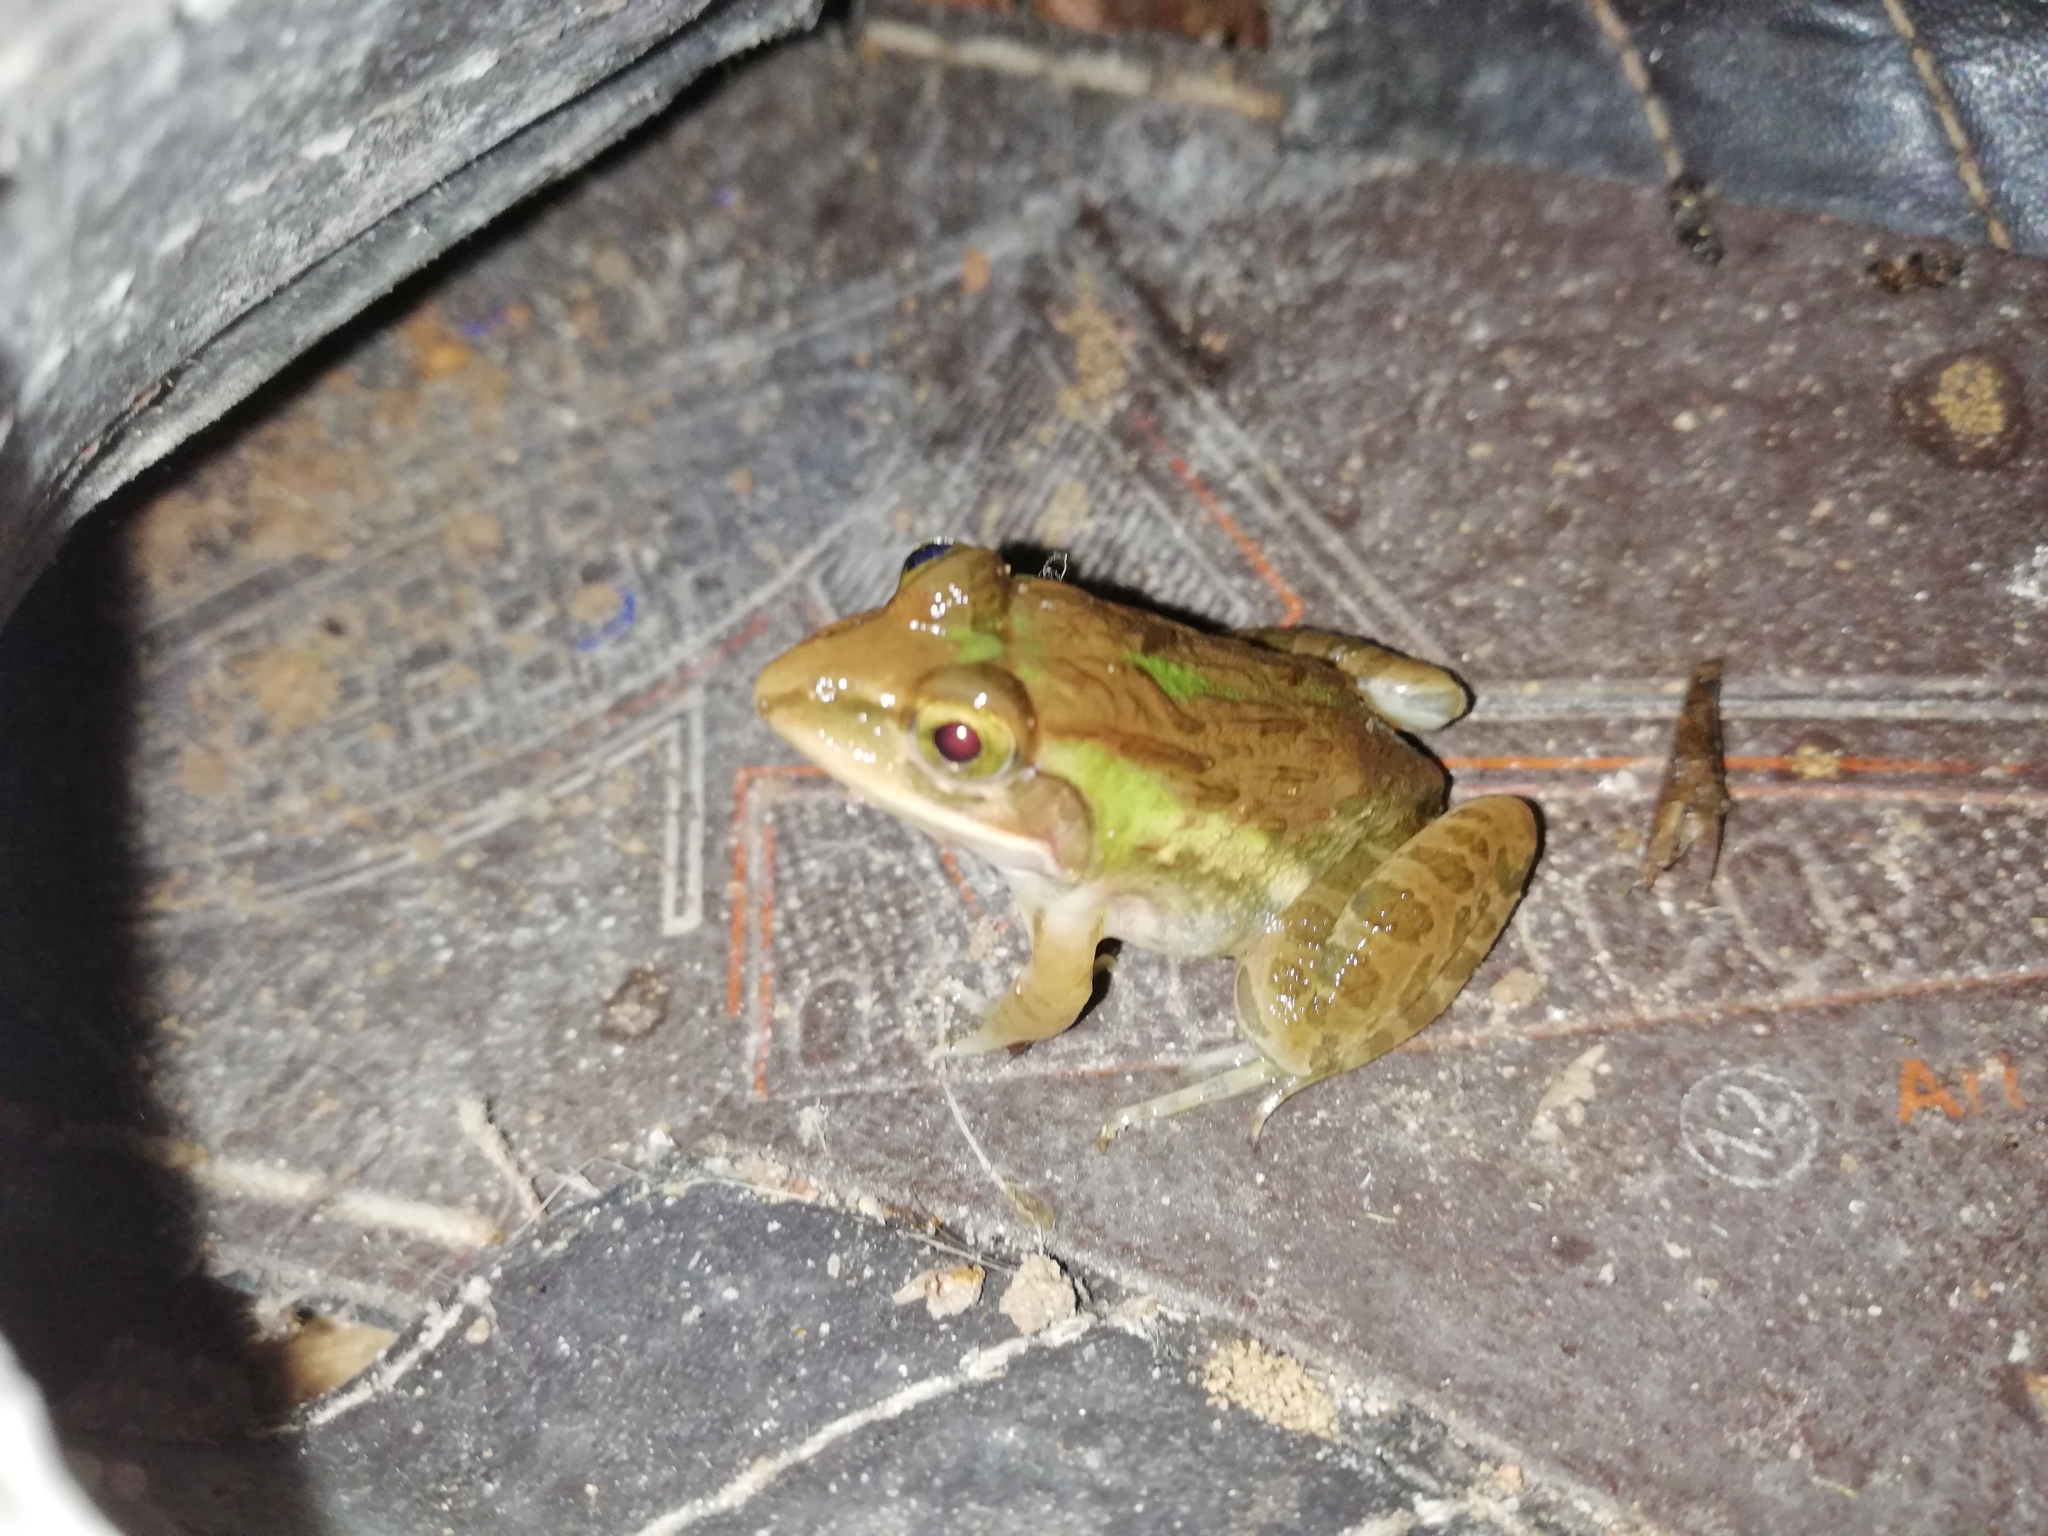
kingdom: Animalia
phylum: Chordata
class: Amphibia
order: Anura
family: Dicroglossidae
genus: Hoplobatrachus
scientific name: Hoplobatrachus tigerinus
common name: Indian bullfrog
